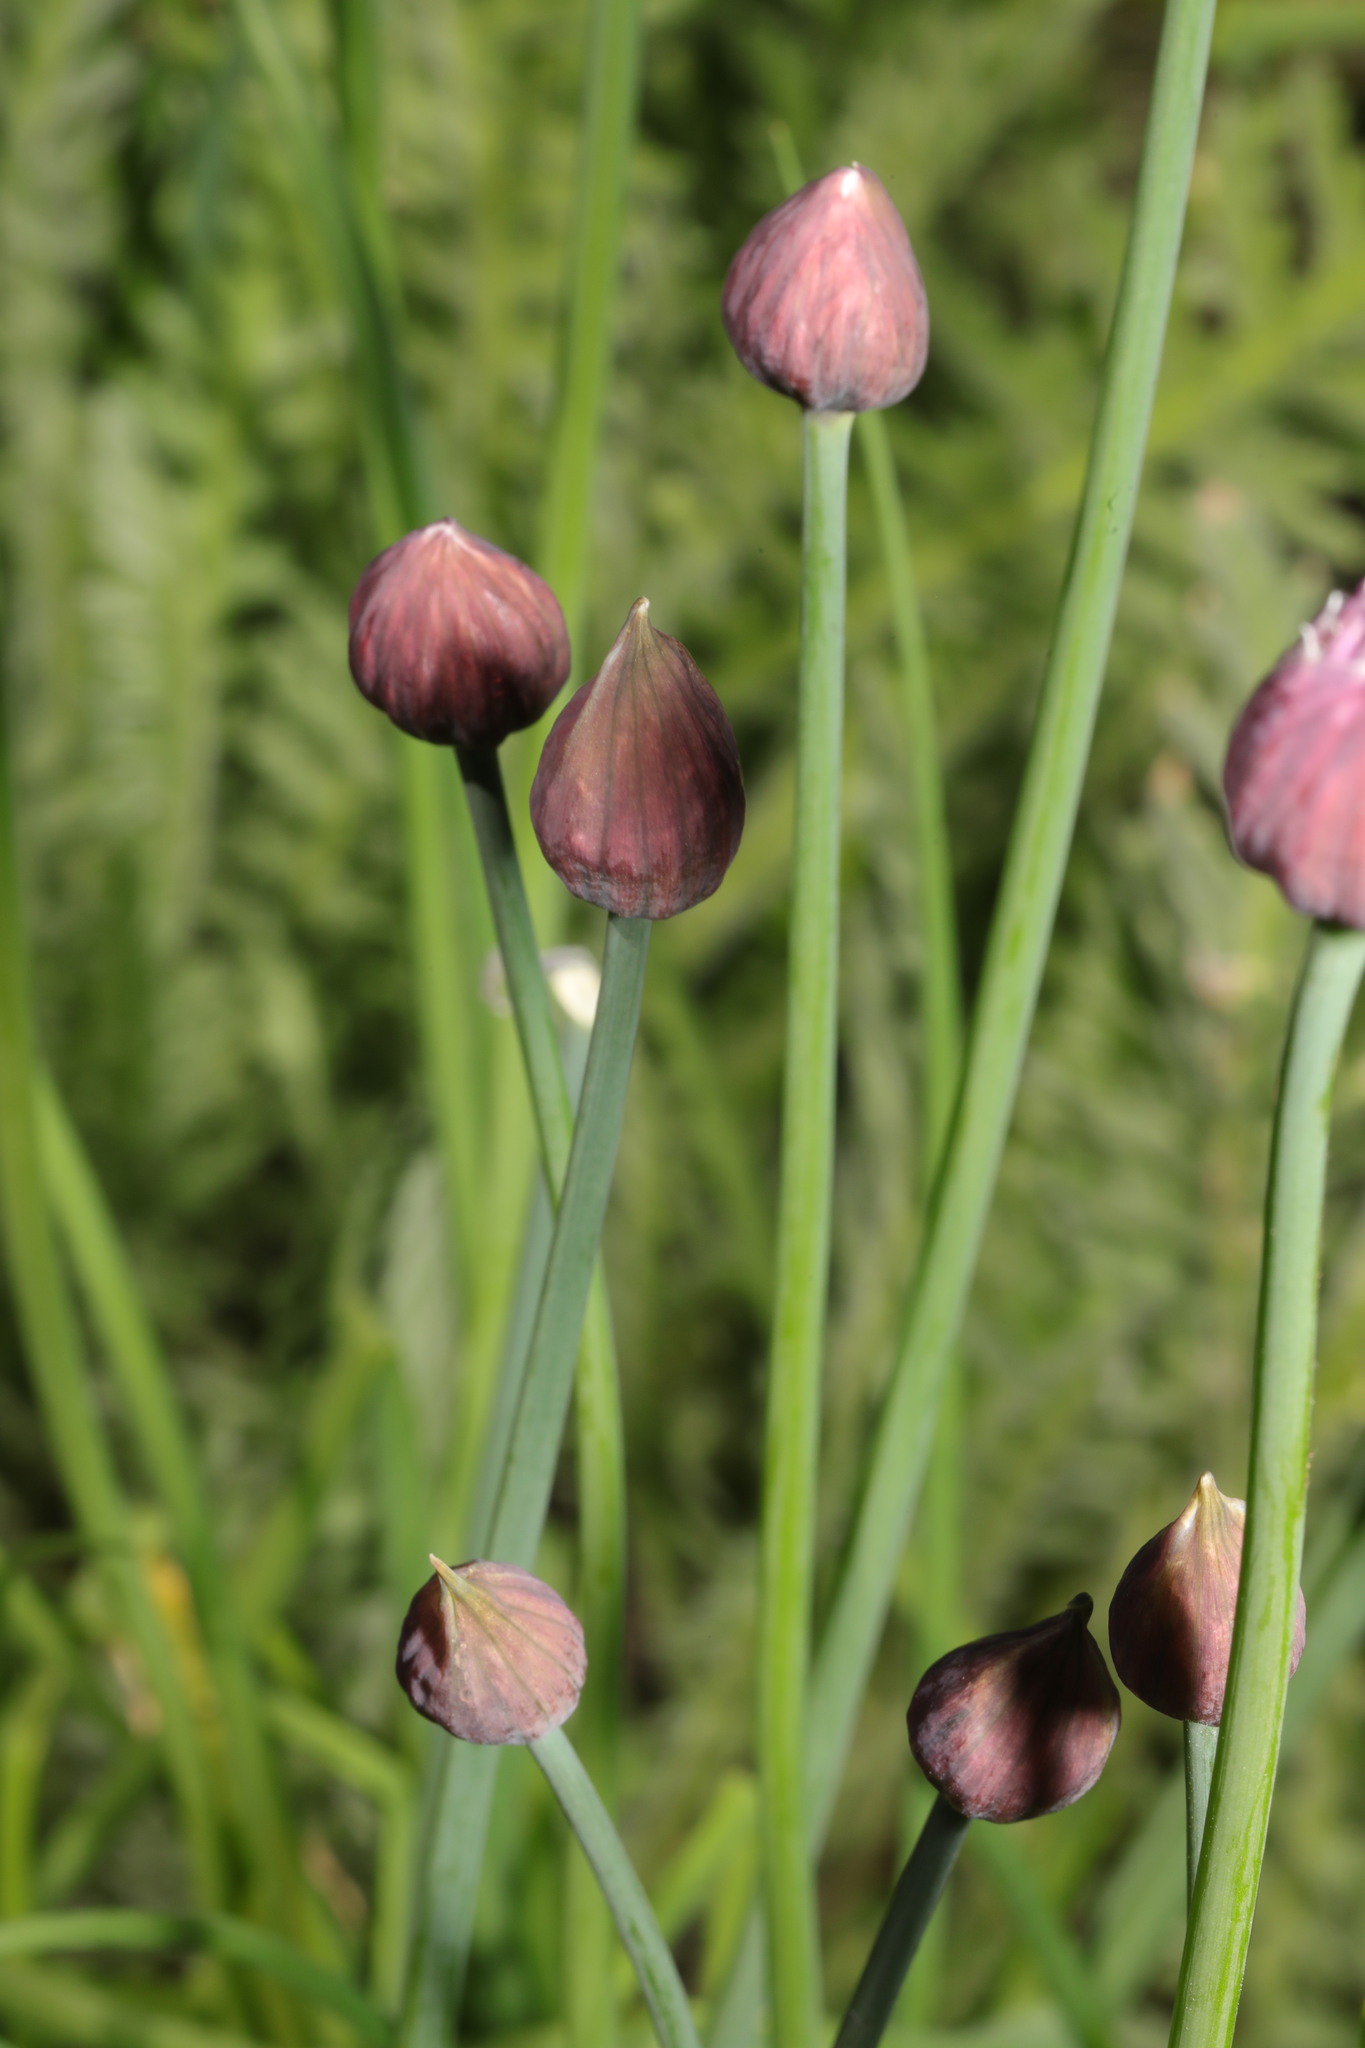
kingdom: Plantae
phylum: Tracheophyta
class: Liliopsida
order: Asparagales
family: Amaryllidaceae
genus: Allium
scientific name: Allium schoenoprasum
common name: Chives
